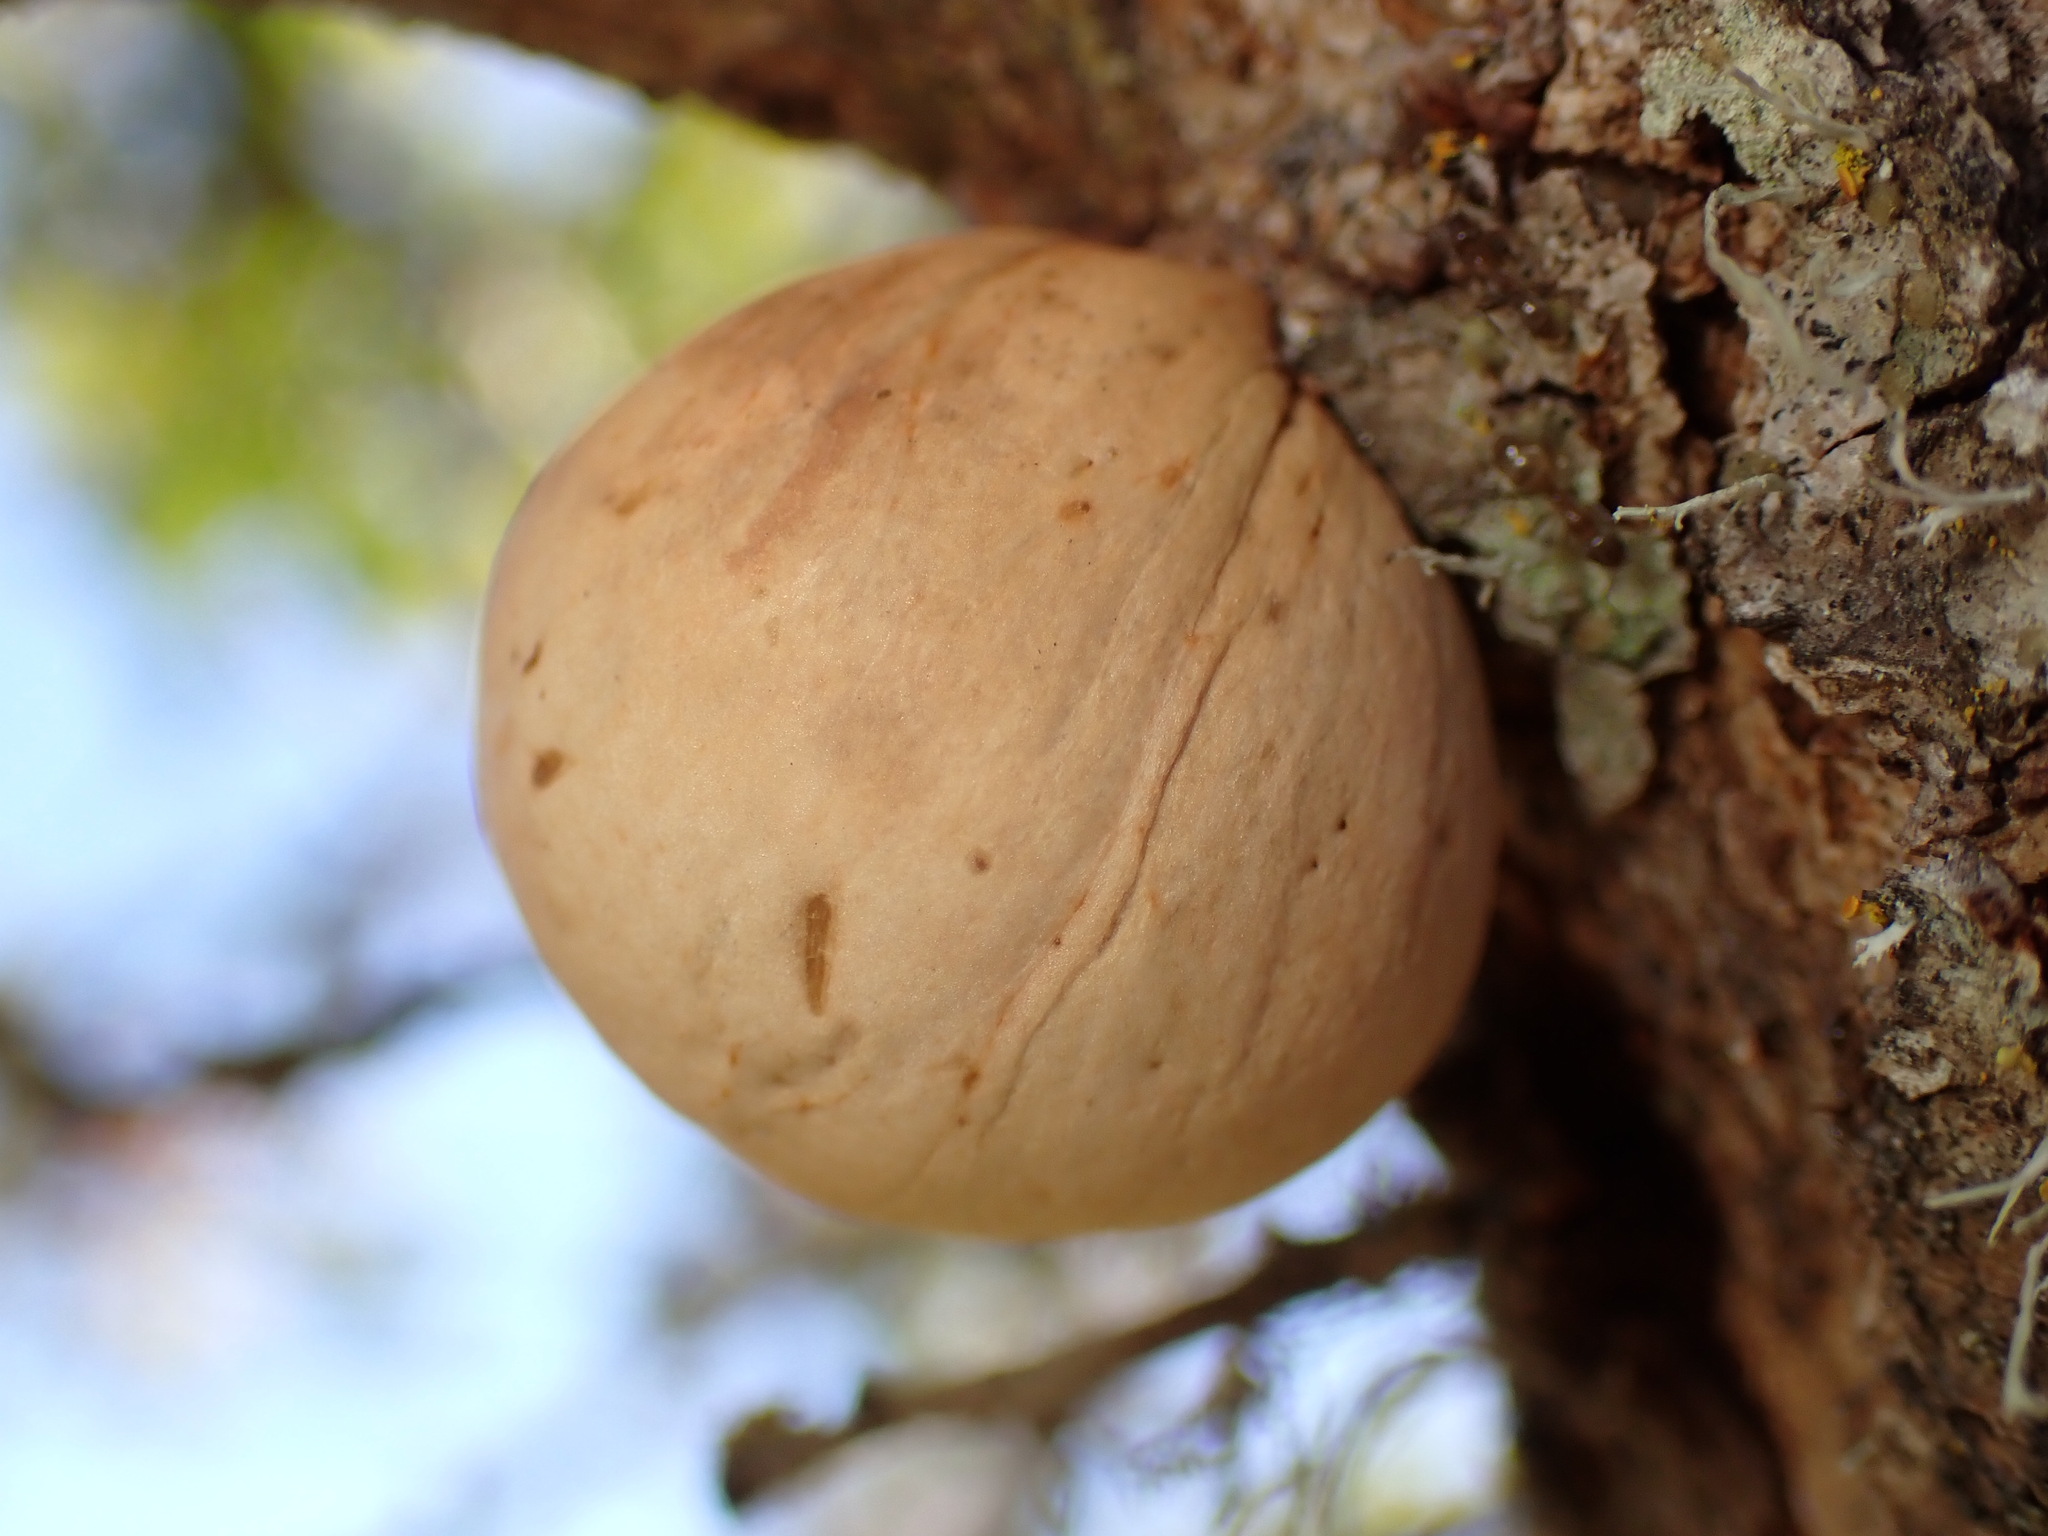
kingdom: Animalia
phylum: Arthropoda
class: Insecta
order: Hymenoptera
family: Cynipidae
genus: Andricus
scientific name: Andricus quercuscalifornicus
